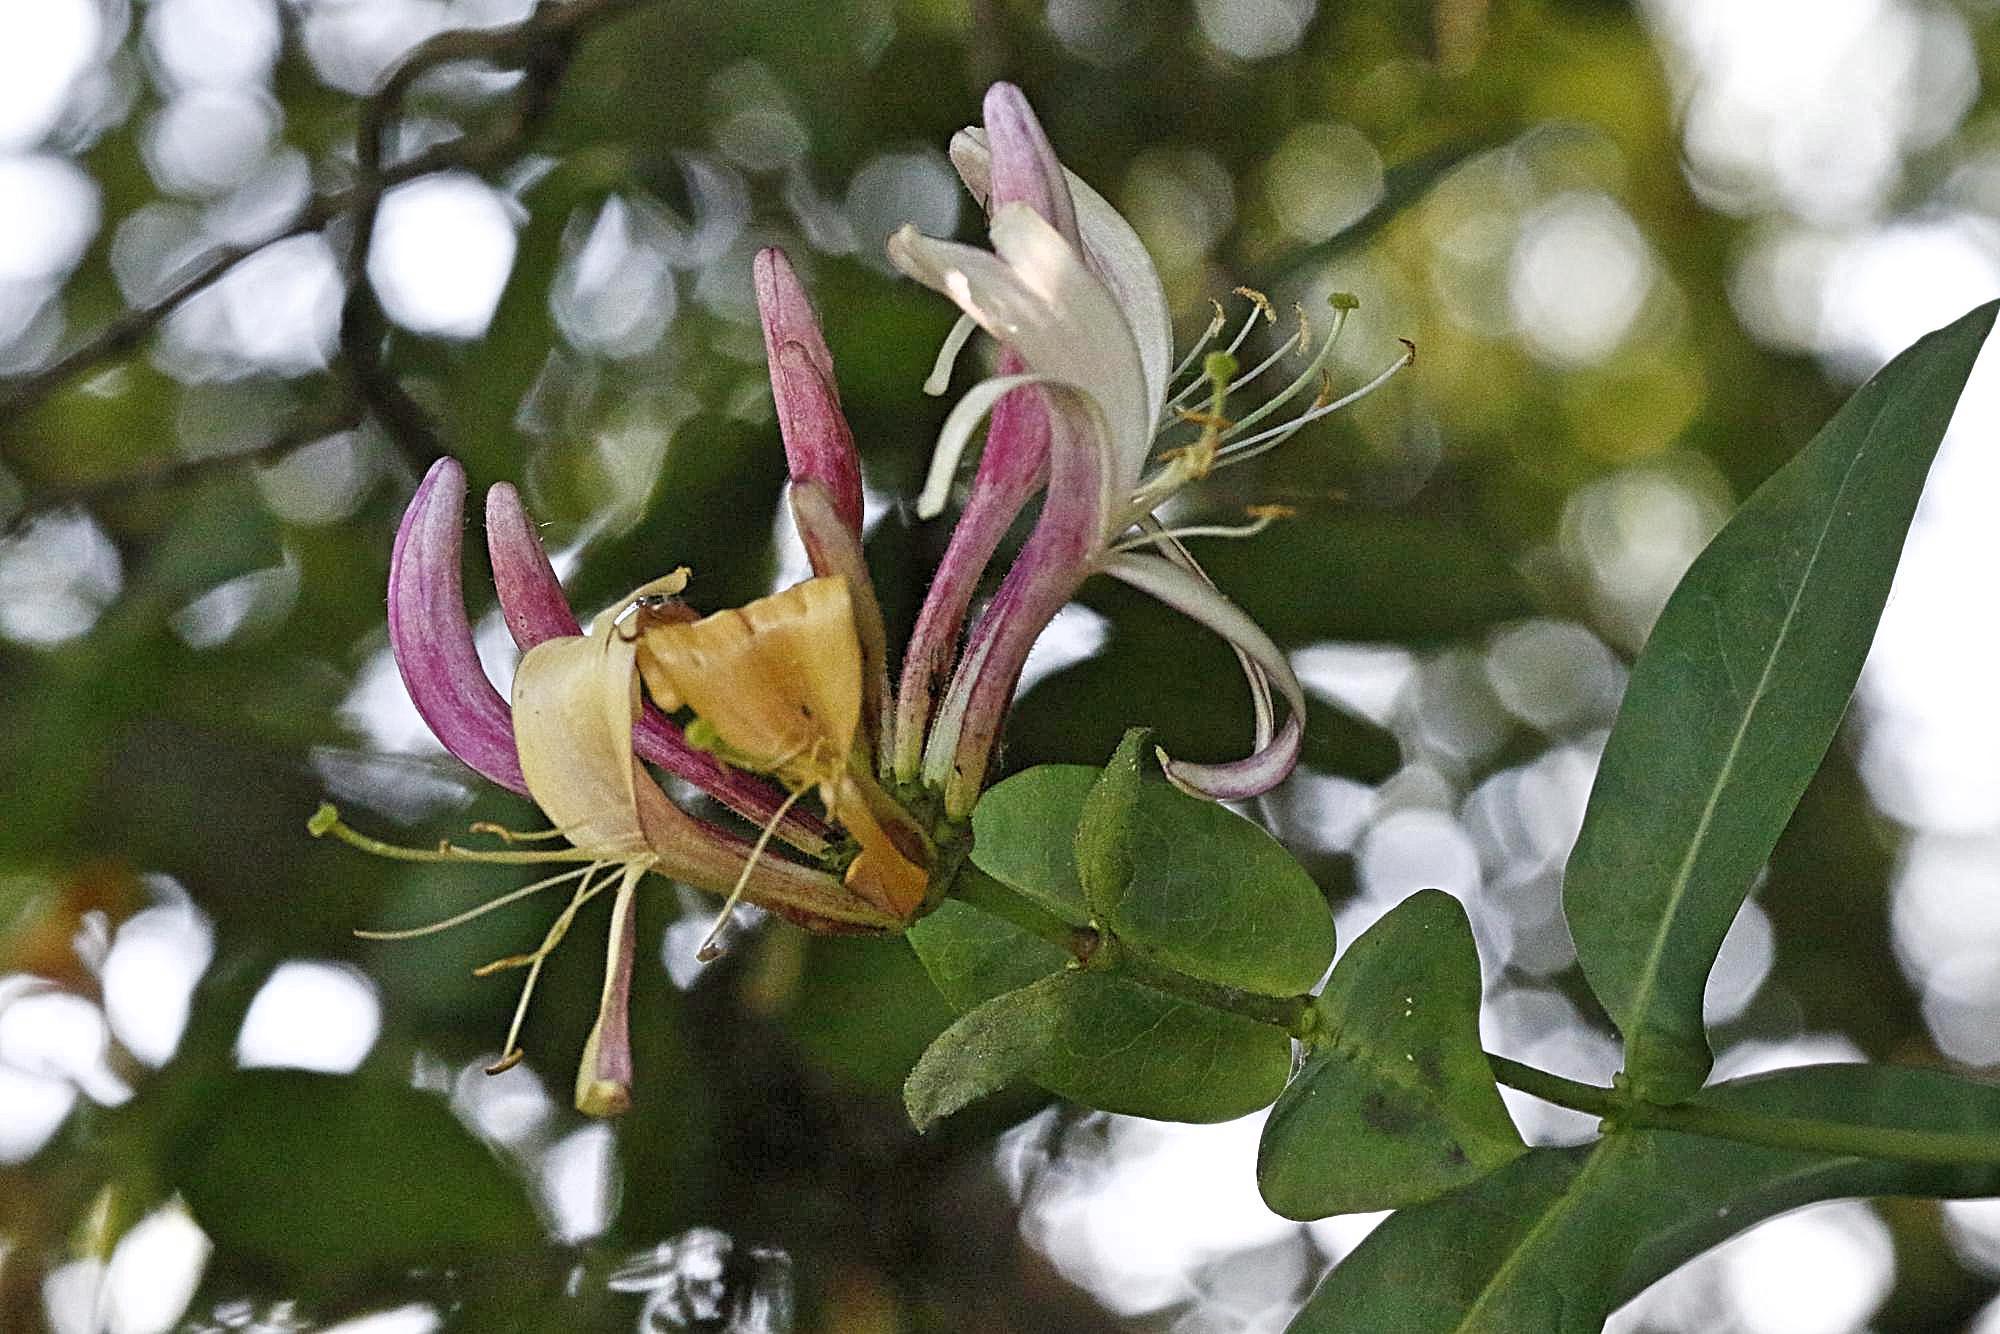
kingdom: Plantae
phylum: Tracheophyta
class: Magnoliopsida
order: Dipsacales
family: Caprifoliaceae
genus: Lonicera
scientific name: Lonicera periclymenum
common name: European honeysuckle
